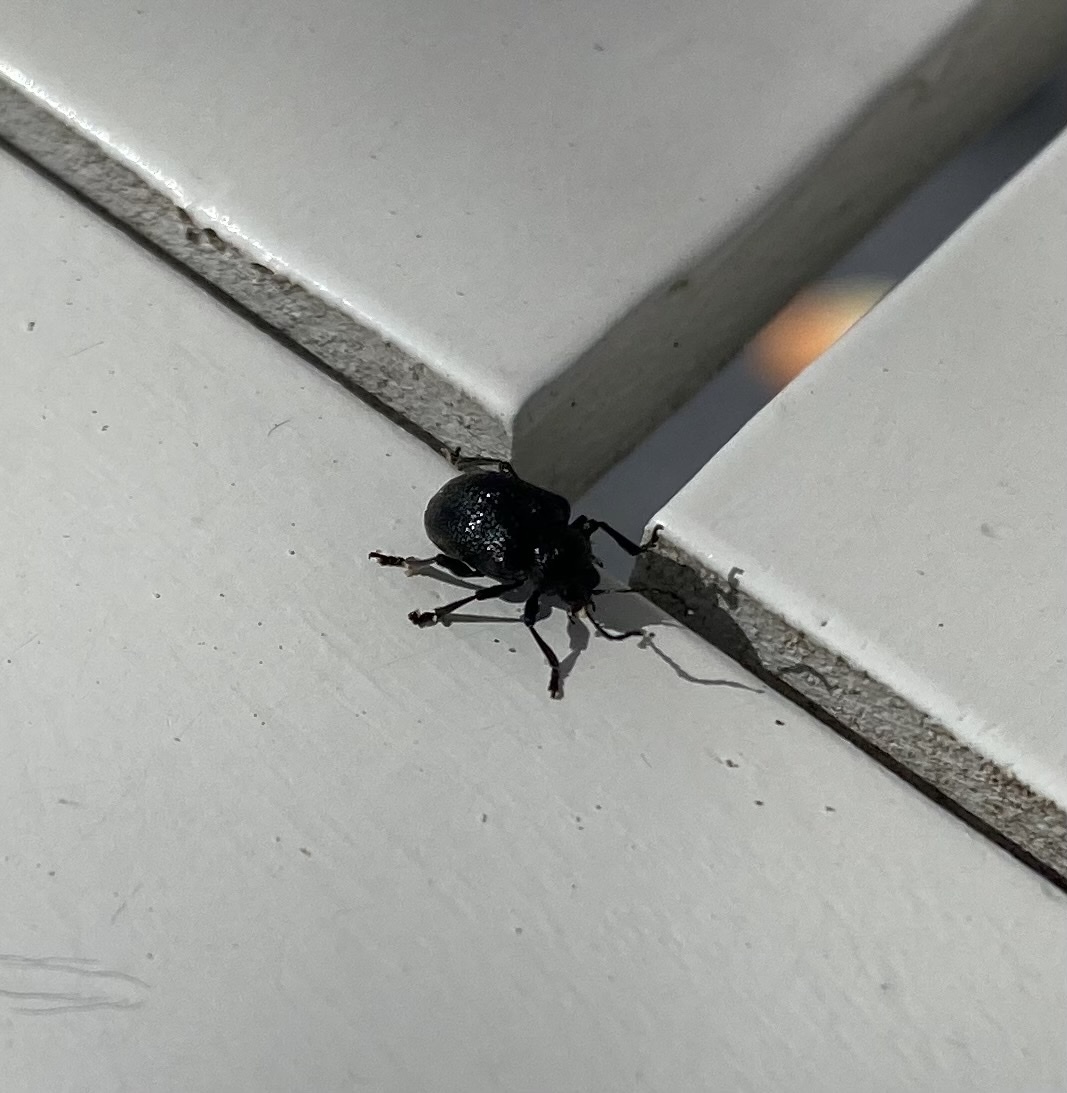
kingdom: Animalia
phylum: Arthropoda
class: Insecta
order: Coleoptera
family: Chrysomelidae
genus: Bromius
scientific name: Bromius obscurus
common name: Western grape rootworm
